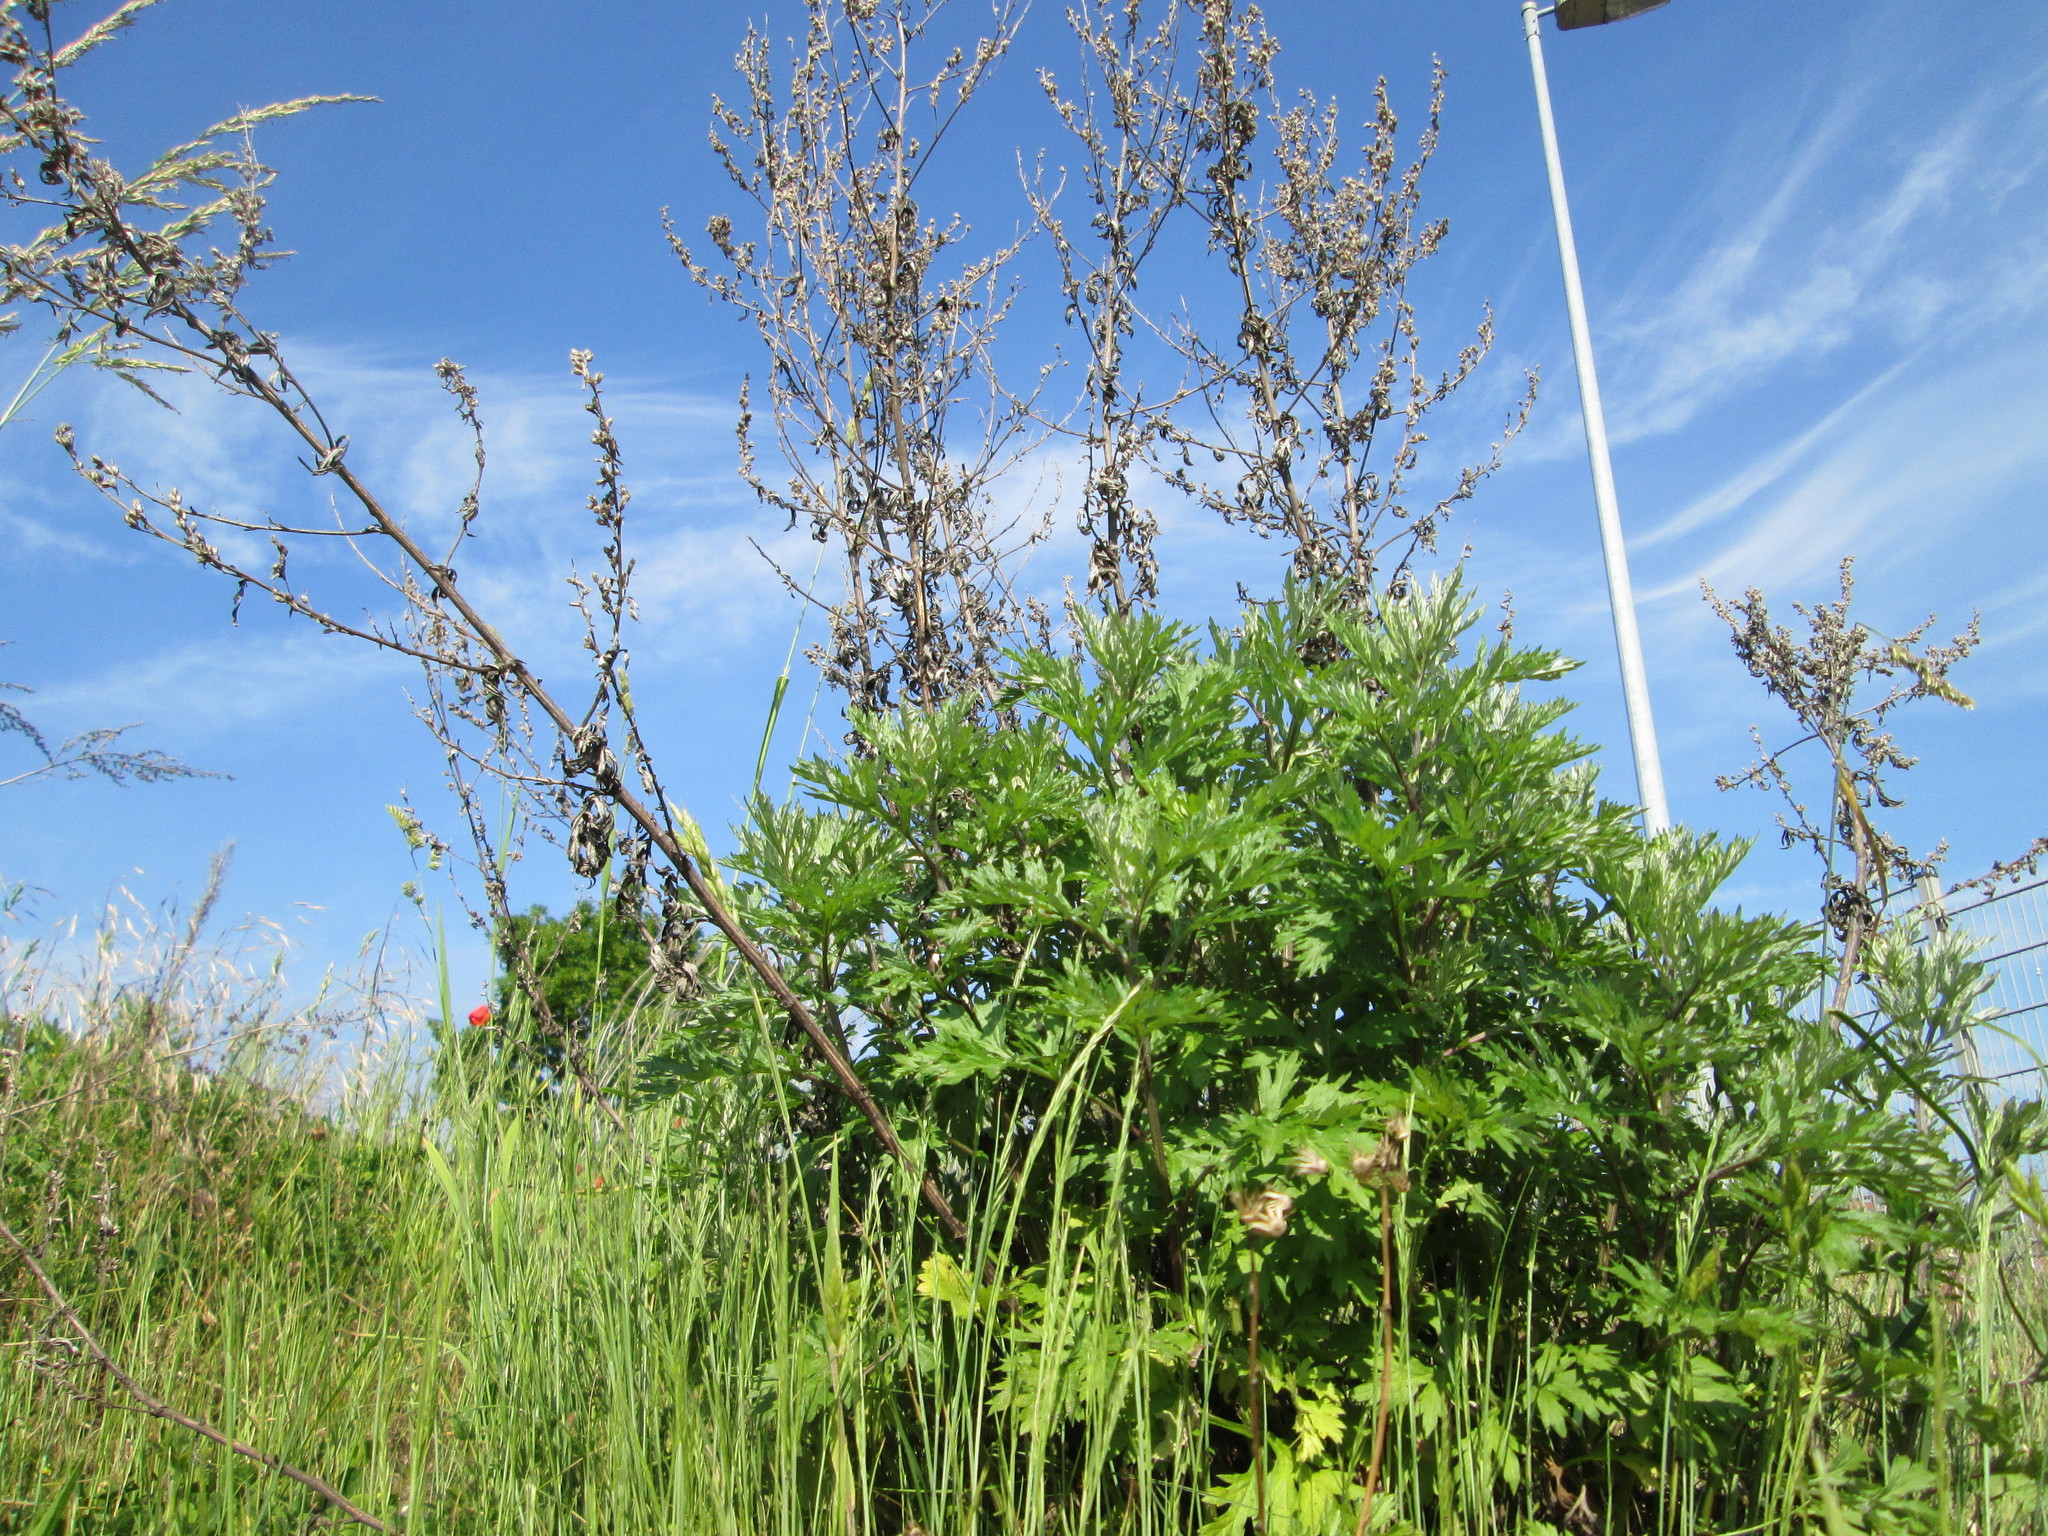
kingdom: Plantae
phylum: Tracheophyta
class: Magnoliopsida
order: Asterales
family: Asteraceae
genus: Artemisia
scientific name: Artemisia vulgaris
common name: Mugwort
